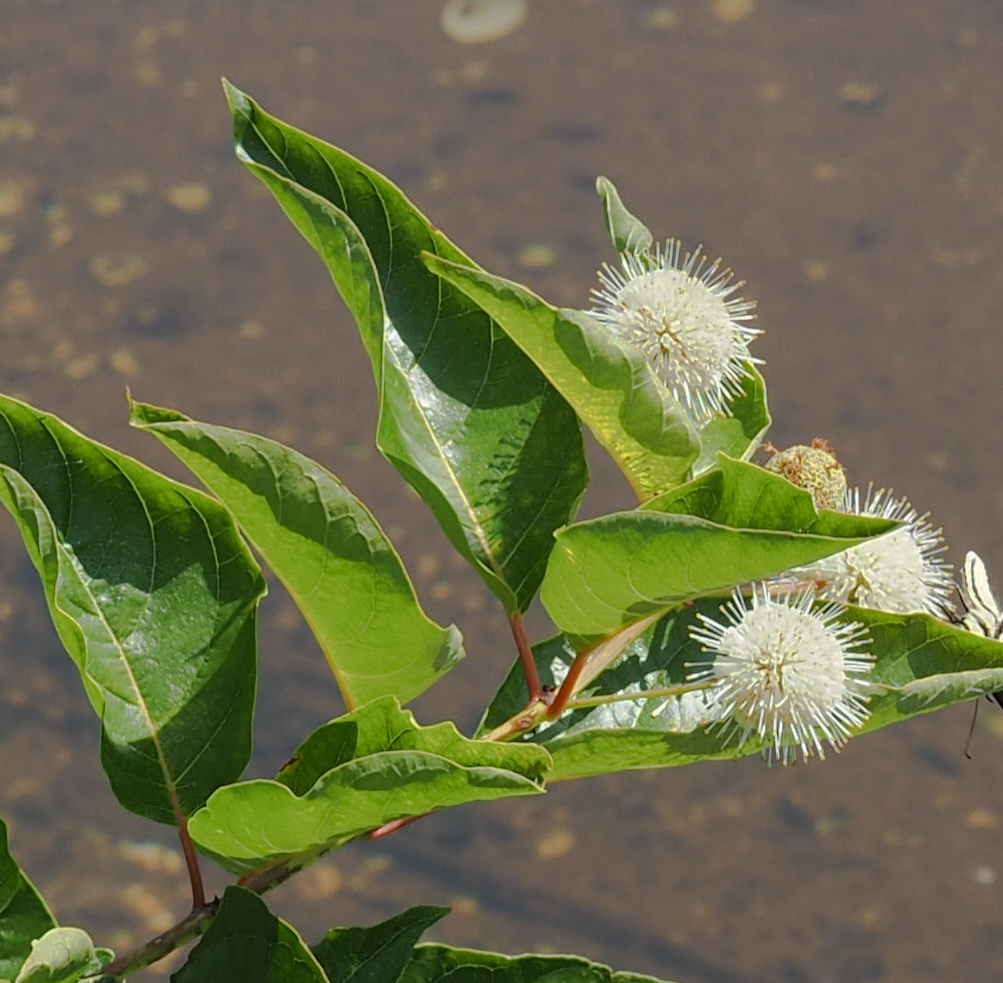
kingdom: Plantae
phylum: Tracheophyta
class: Magnoliopsida
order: Gentianales
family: Rubiaceae
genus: Cephalanthus
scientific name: Cephalanthus occidentalis
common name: Button-willow
